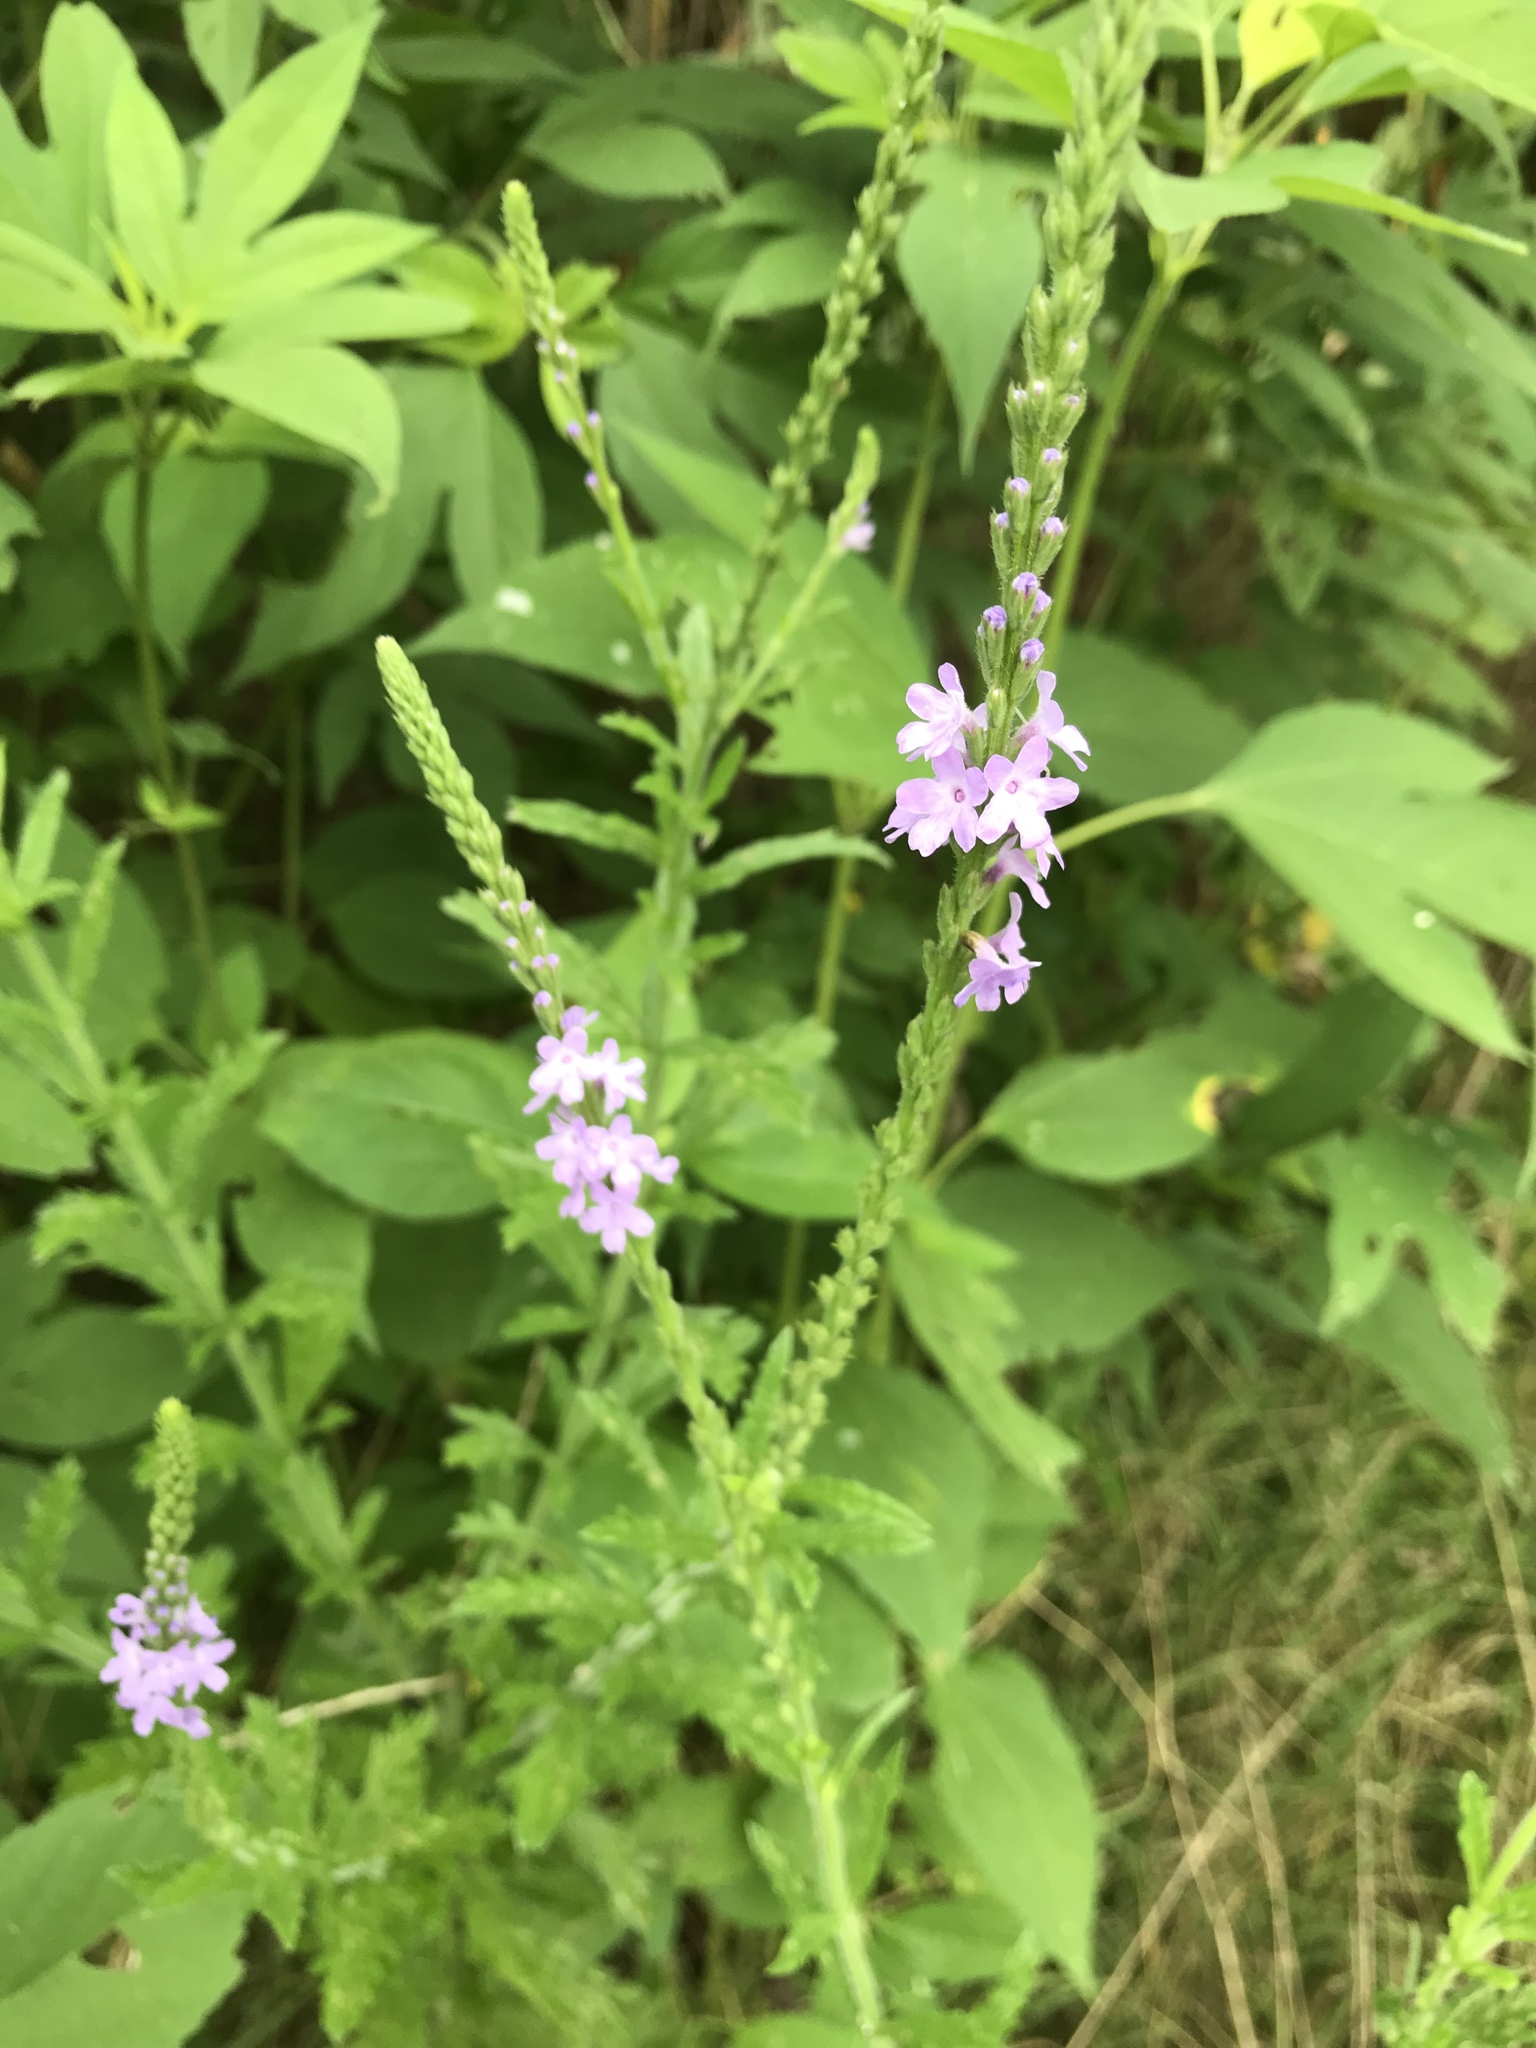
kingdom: Plantae
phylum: Tracheophyta
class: Magnoliopsida
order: Lamiales
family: Verbenaceae
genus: Verbena
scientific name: Verbena xutha
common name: Gulf vervain
